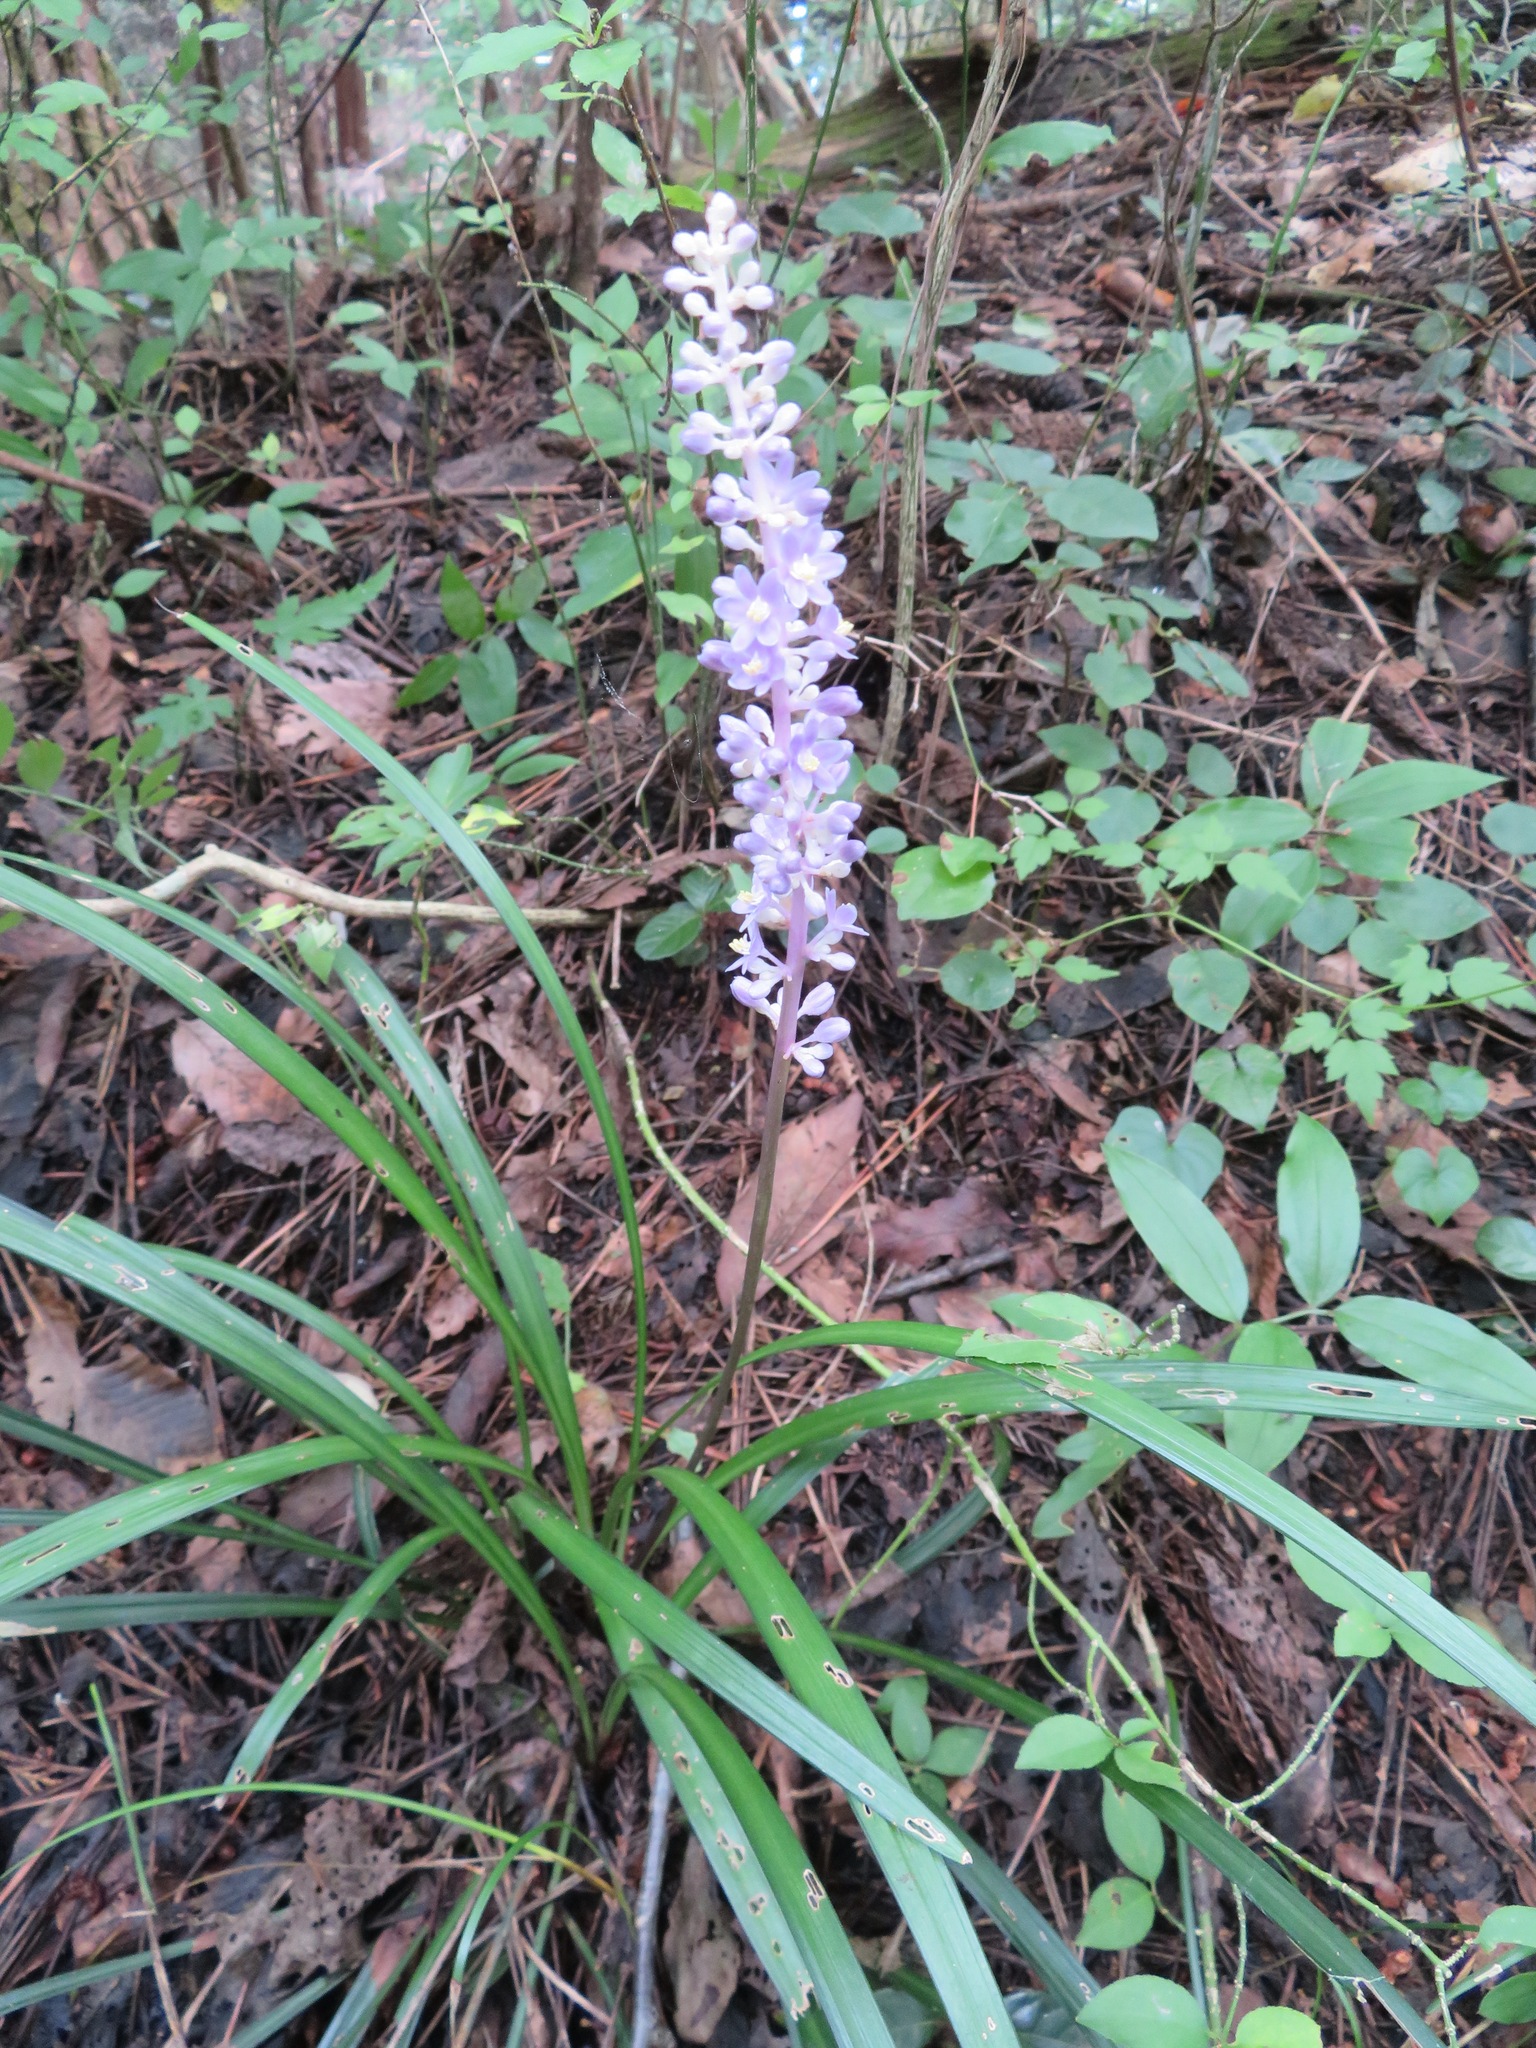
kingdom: Plantae
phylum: Tracheophyta
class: Liliopsida
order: Asparagales
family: Asparagaceae
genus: Liriope
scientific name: Liriope muscari
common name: Big blue lilyturf
